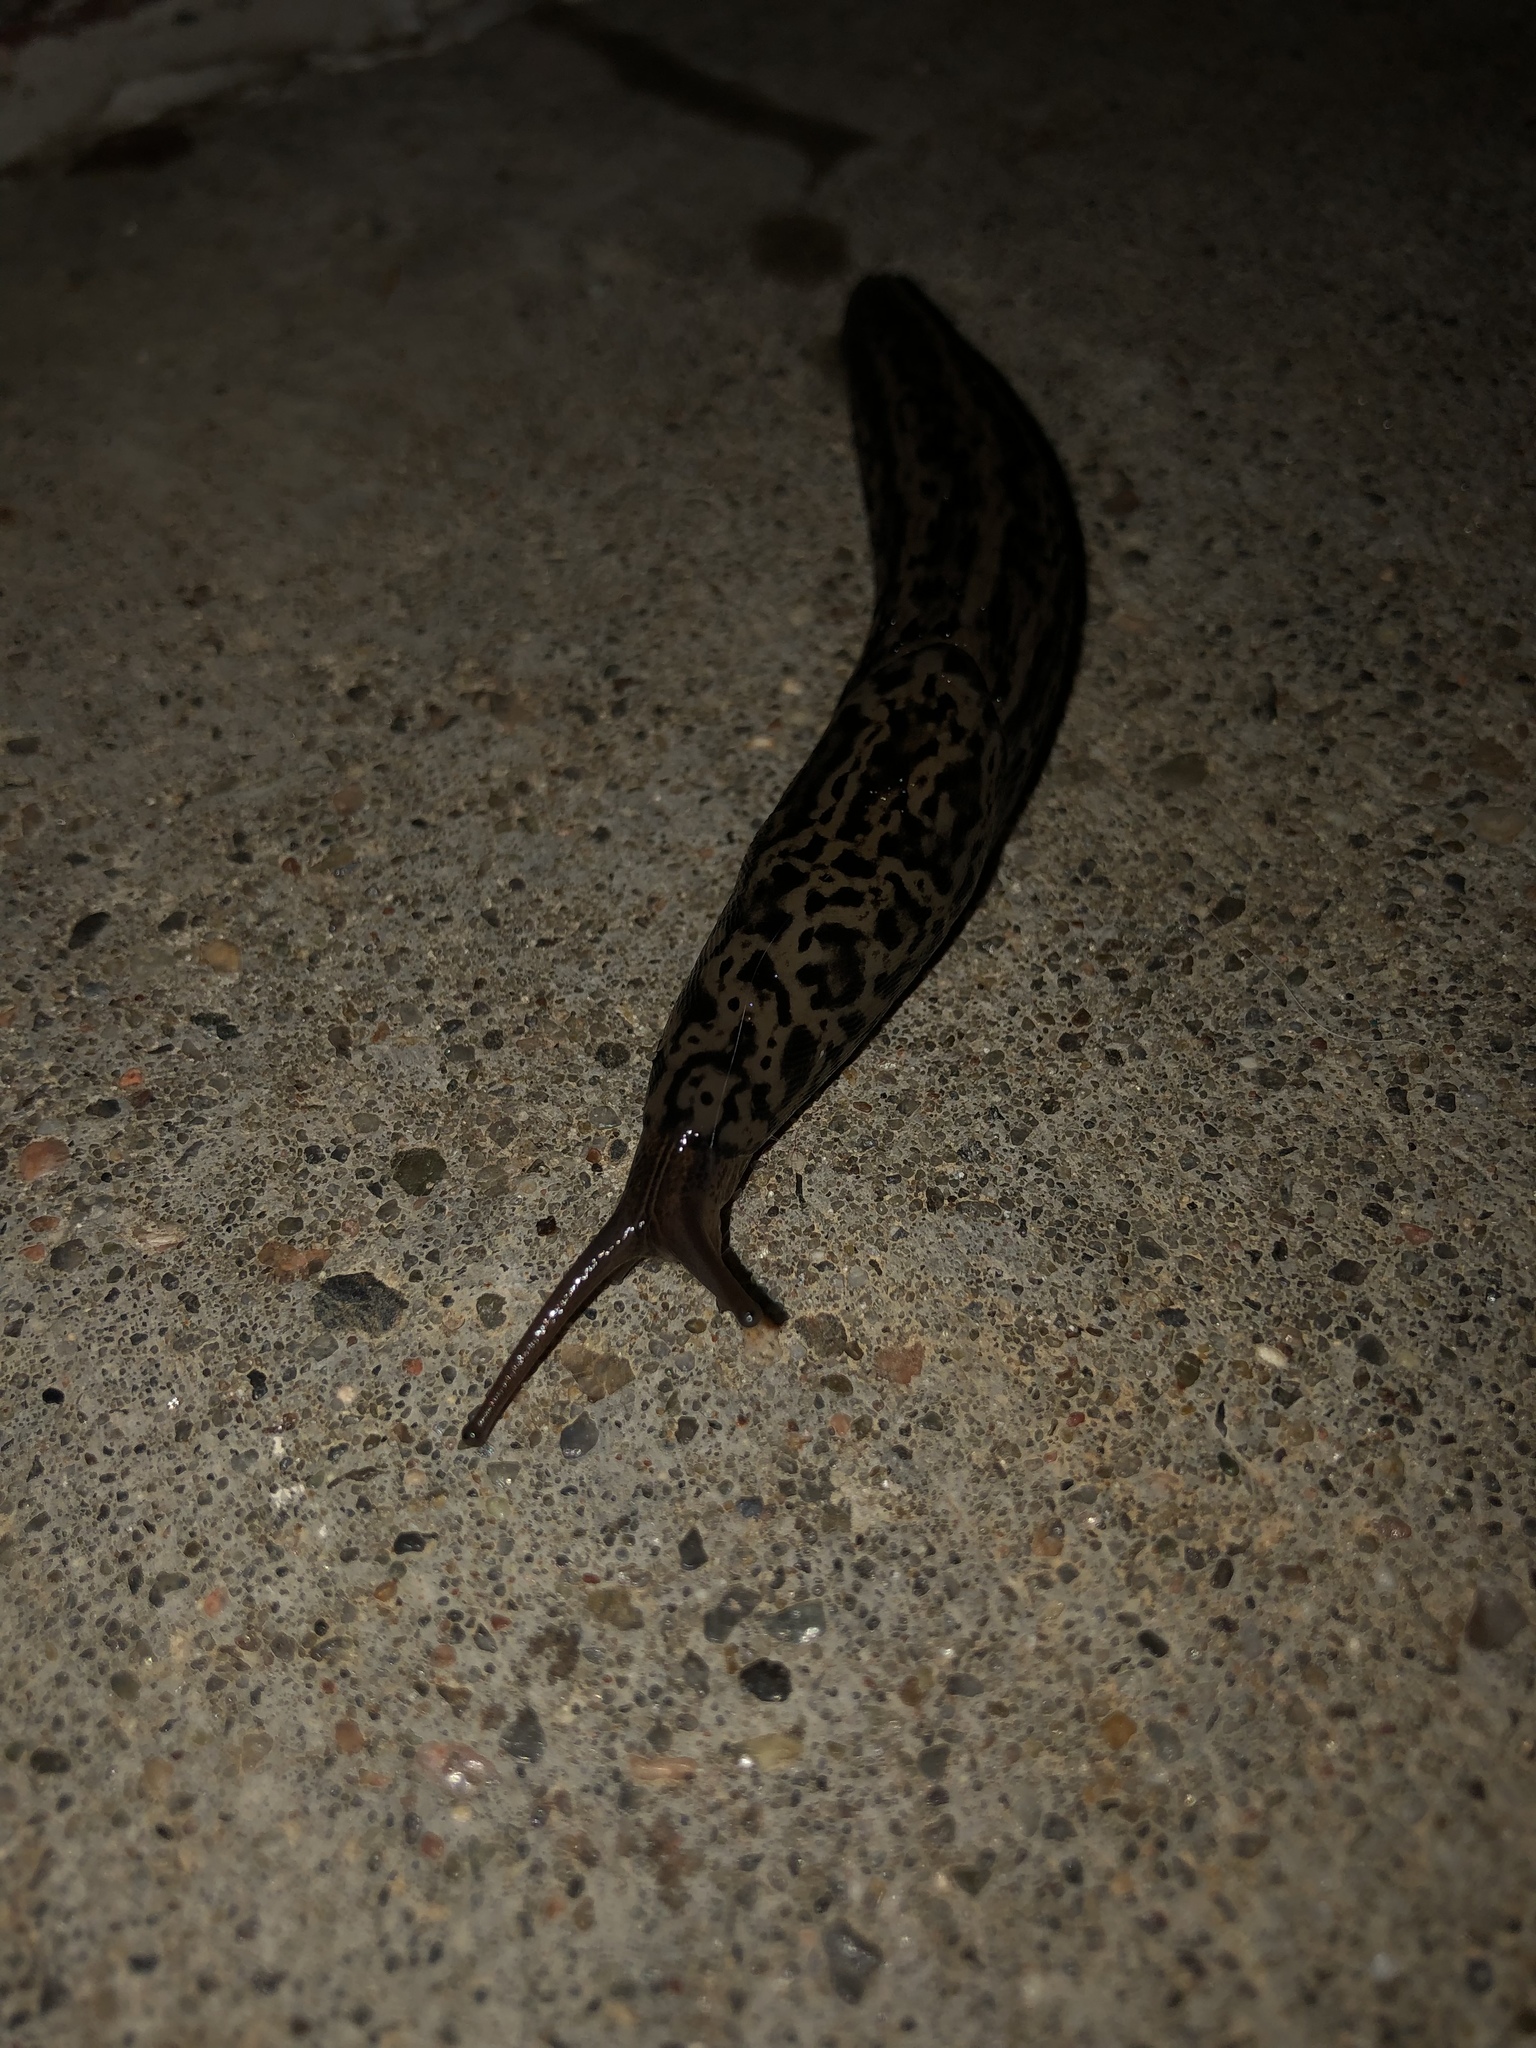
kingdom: Animalia
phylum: Mollusca
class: Gastropoda
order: Stylommatophora
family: Limacidae
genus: Limax
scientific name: Limax maximus
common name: Great grey slug
